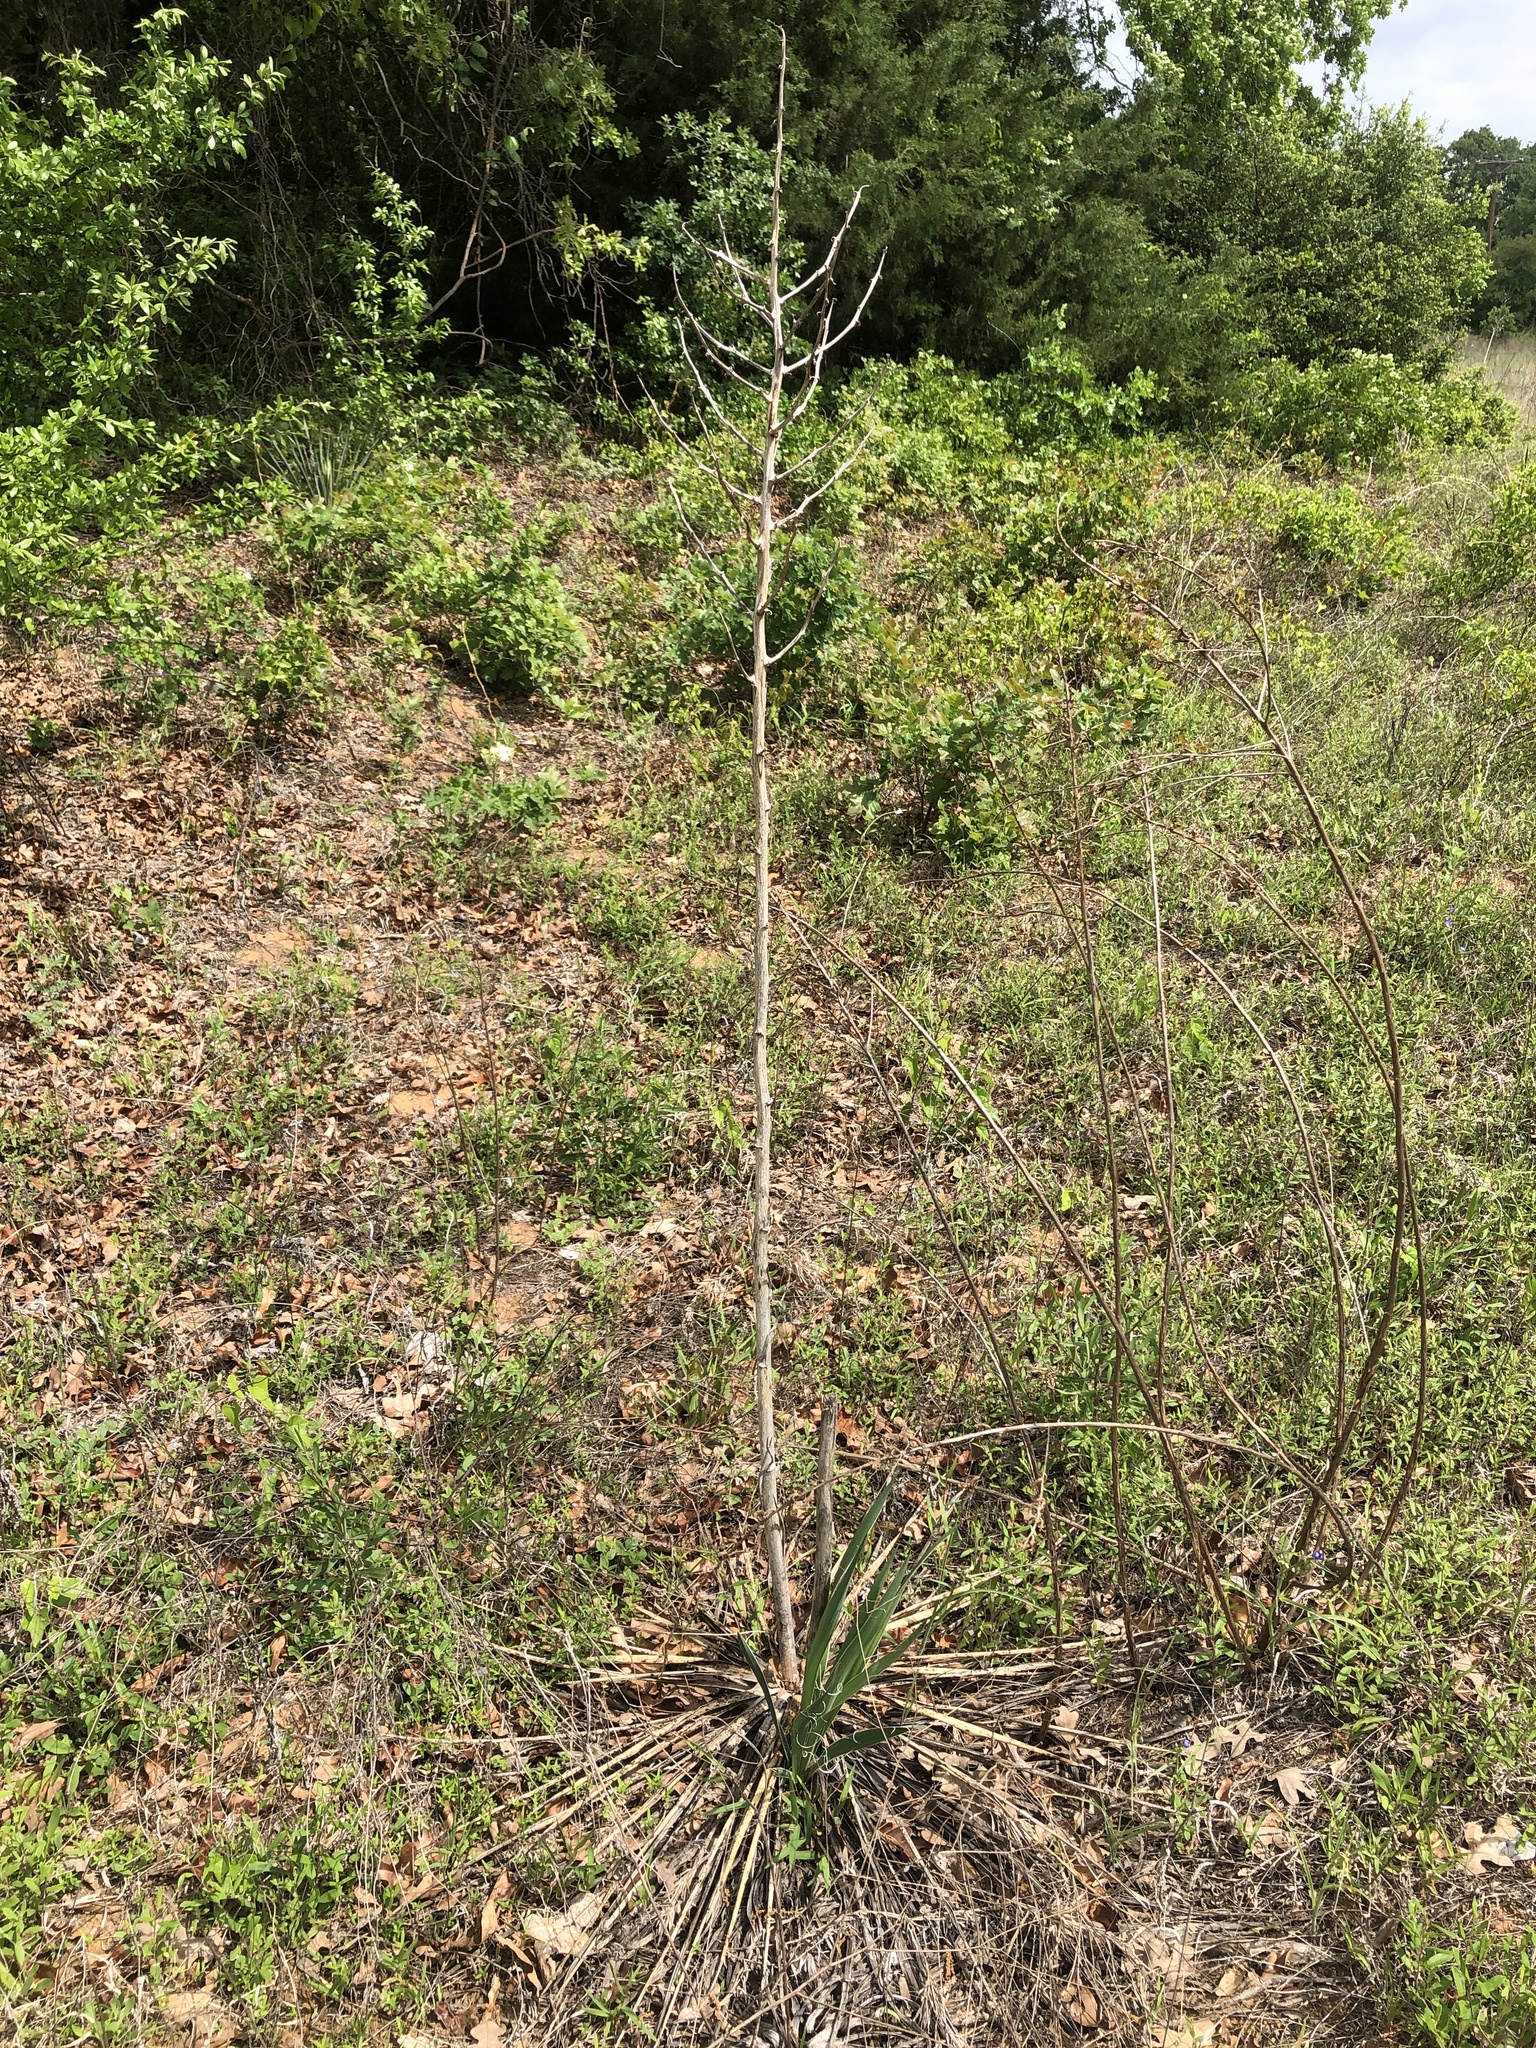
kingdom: Plantae
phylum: Tracheophyta
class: Liliopsida
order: Asparagales
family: Asparagaceae
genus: Yucca
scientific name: Yucca necopina
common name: Glen rose yucca
